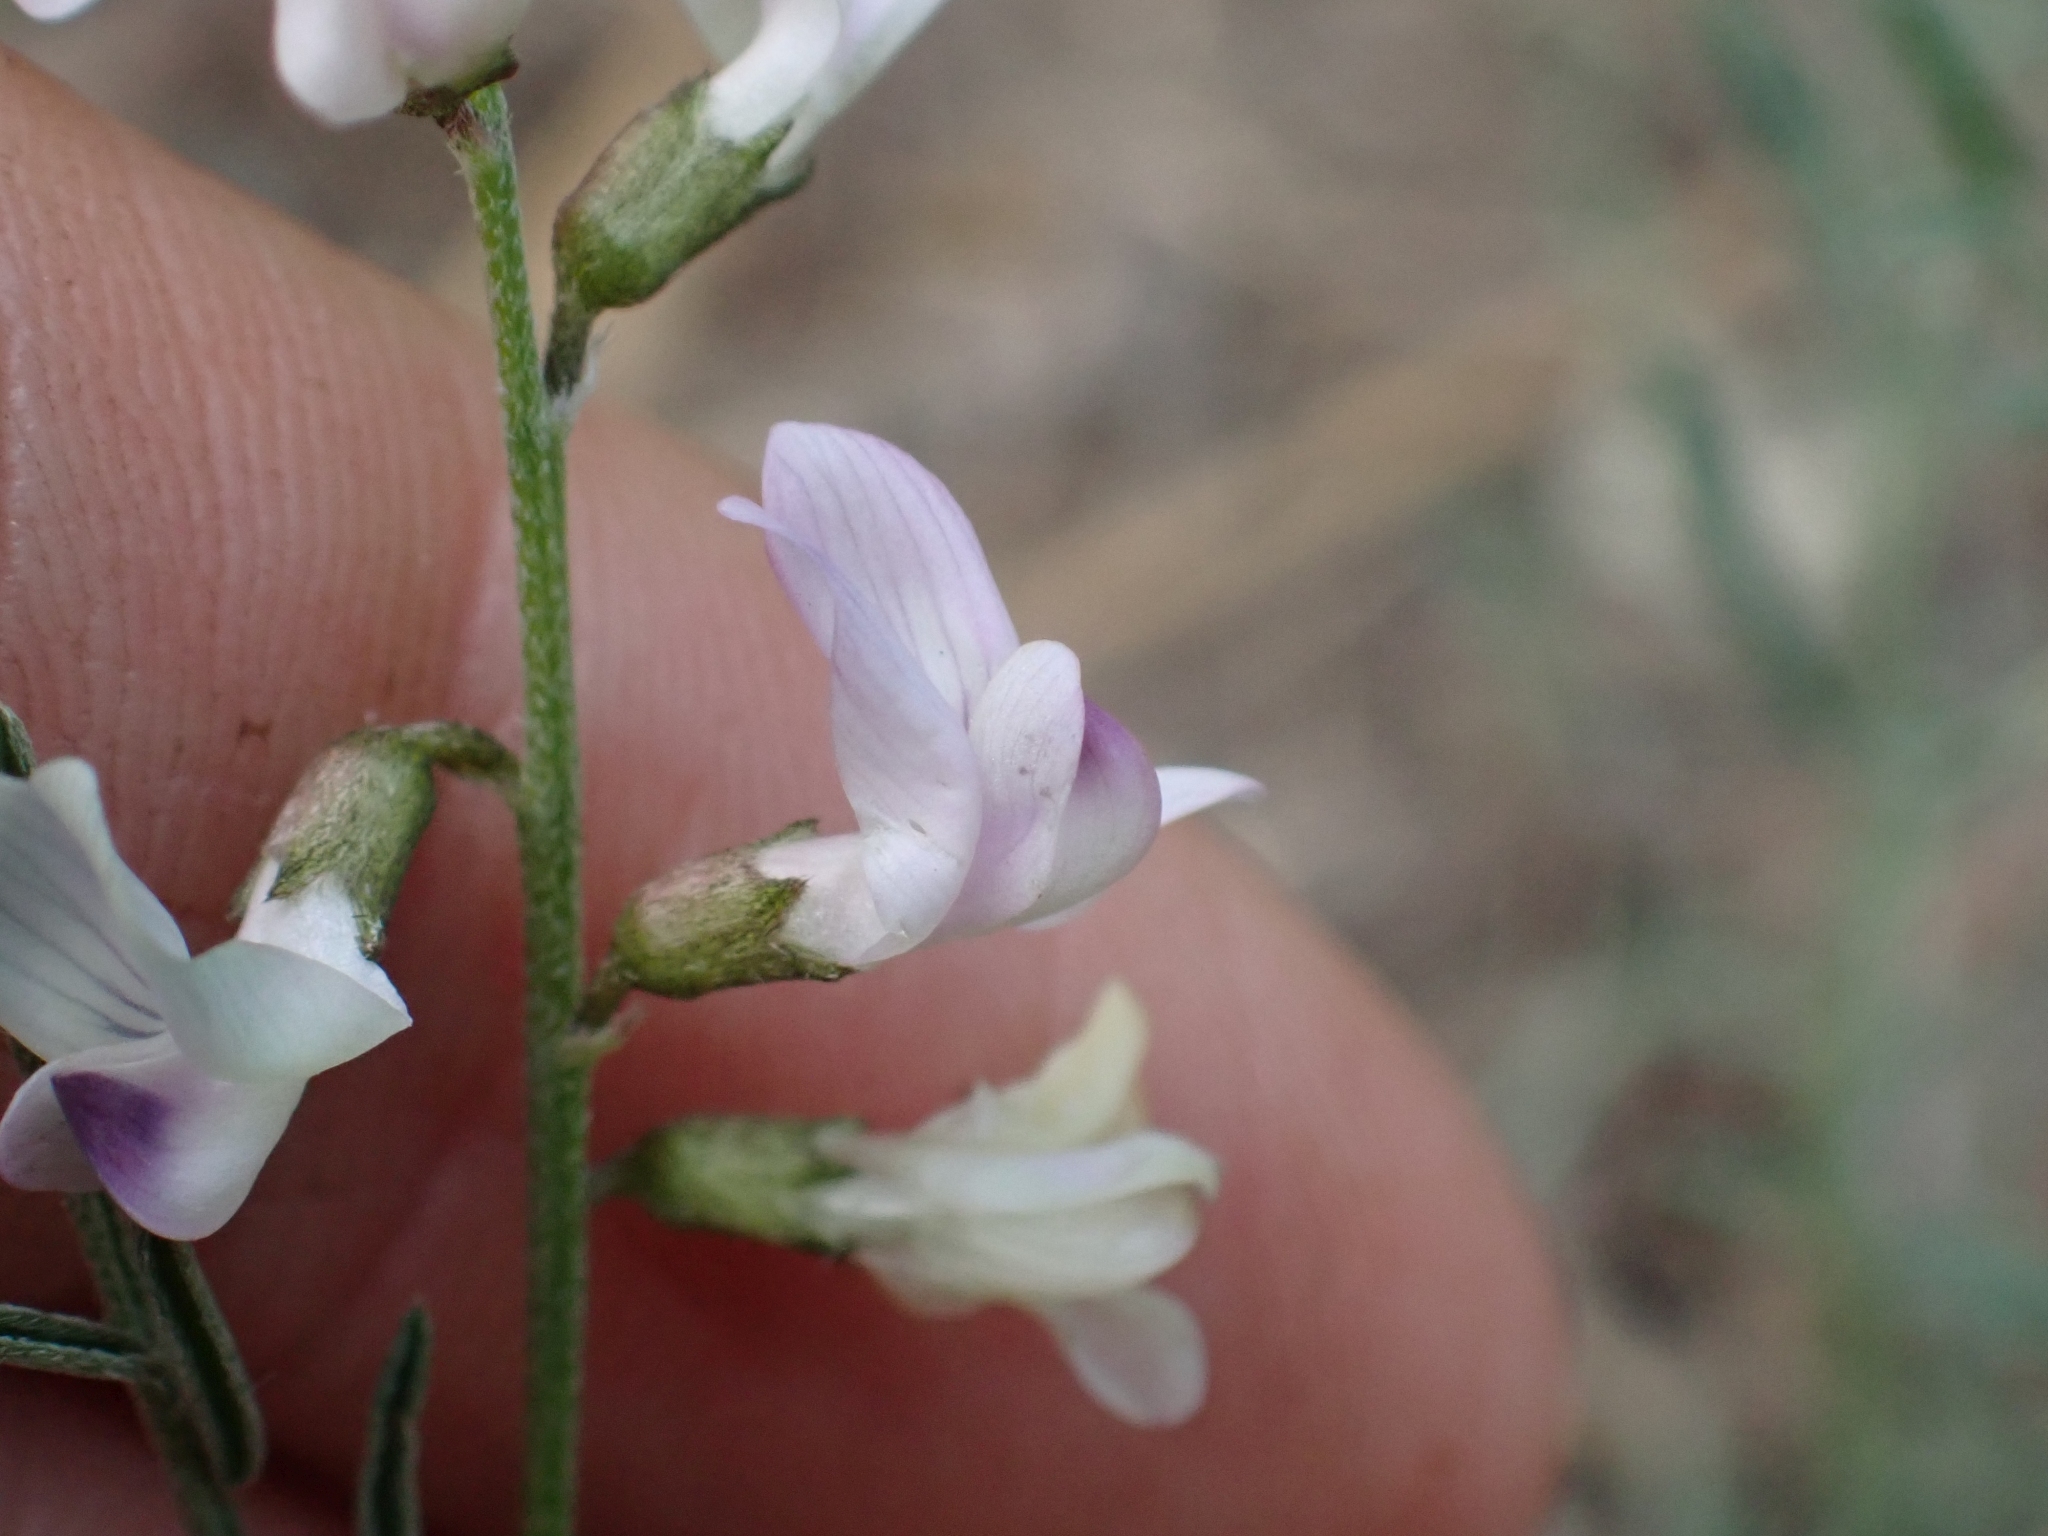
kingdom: Plantae
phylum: Tracheophyta
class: Magnoliopsida
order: Fabales
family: Fabaceae
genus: Astragalus
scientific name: Astragalus miser
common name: Timber milkvetch
